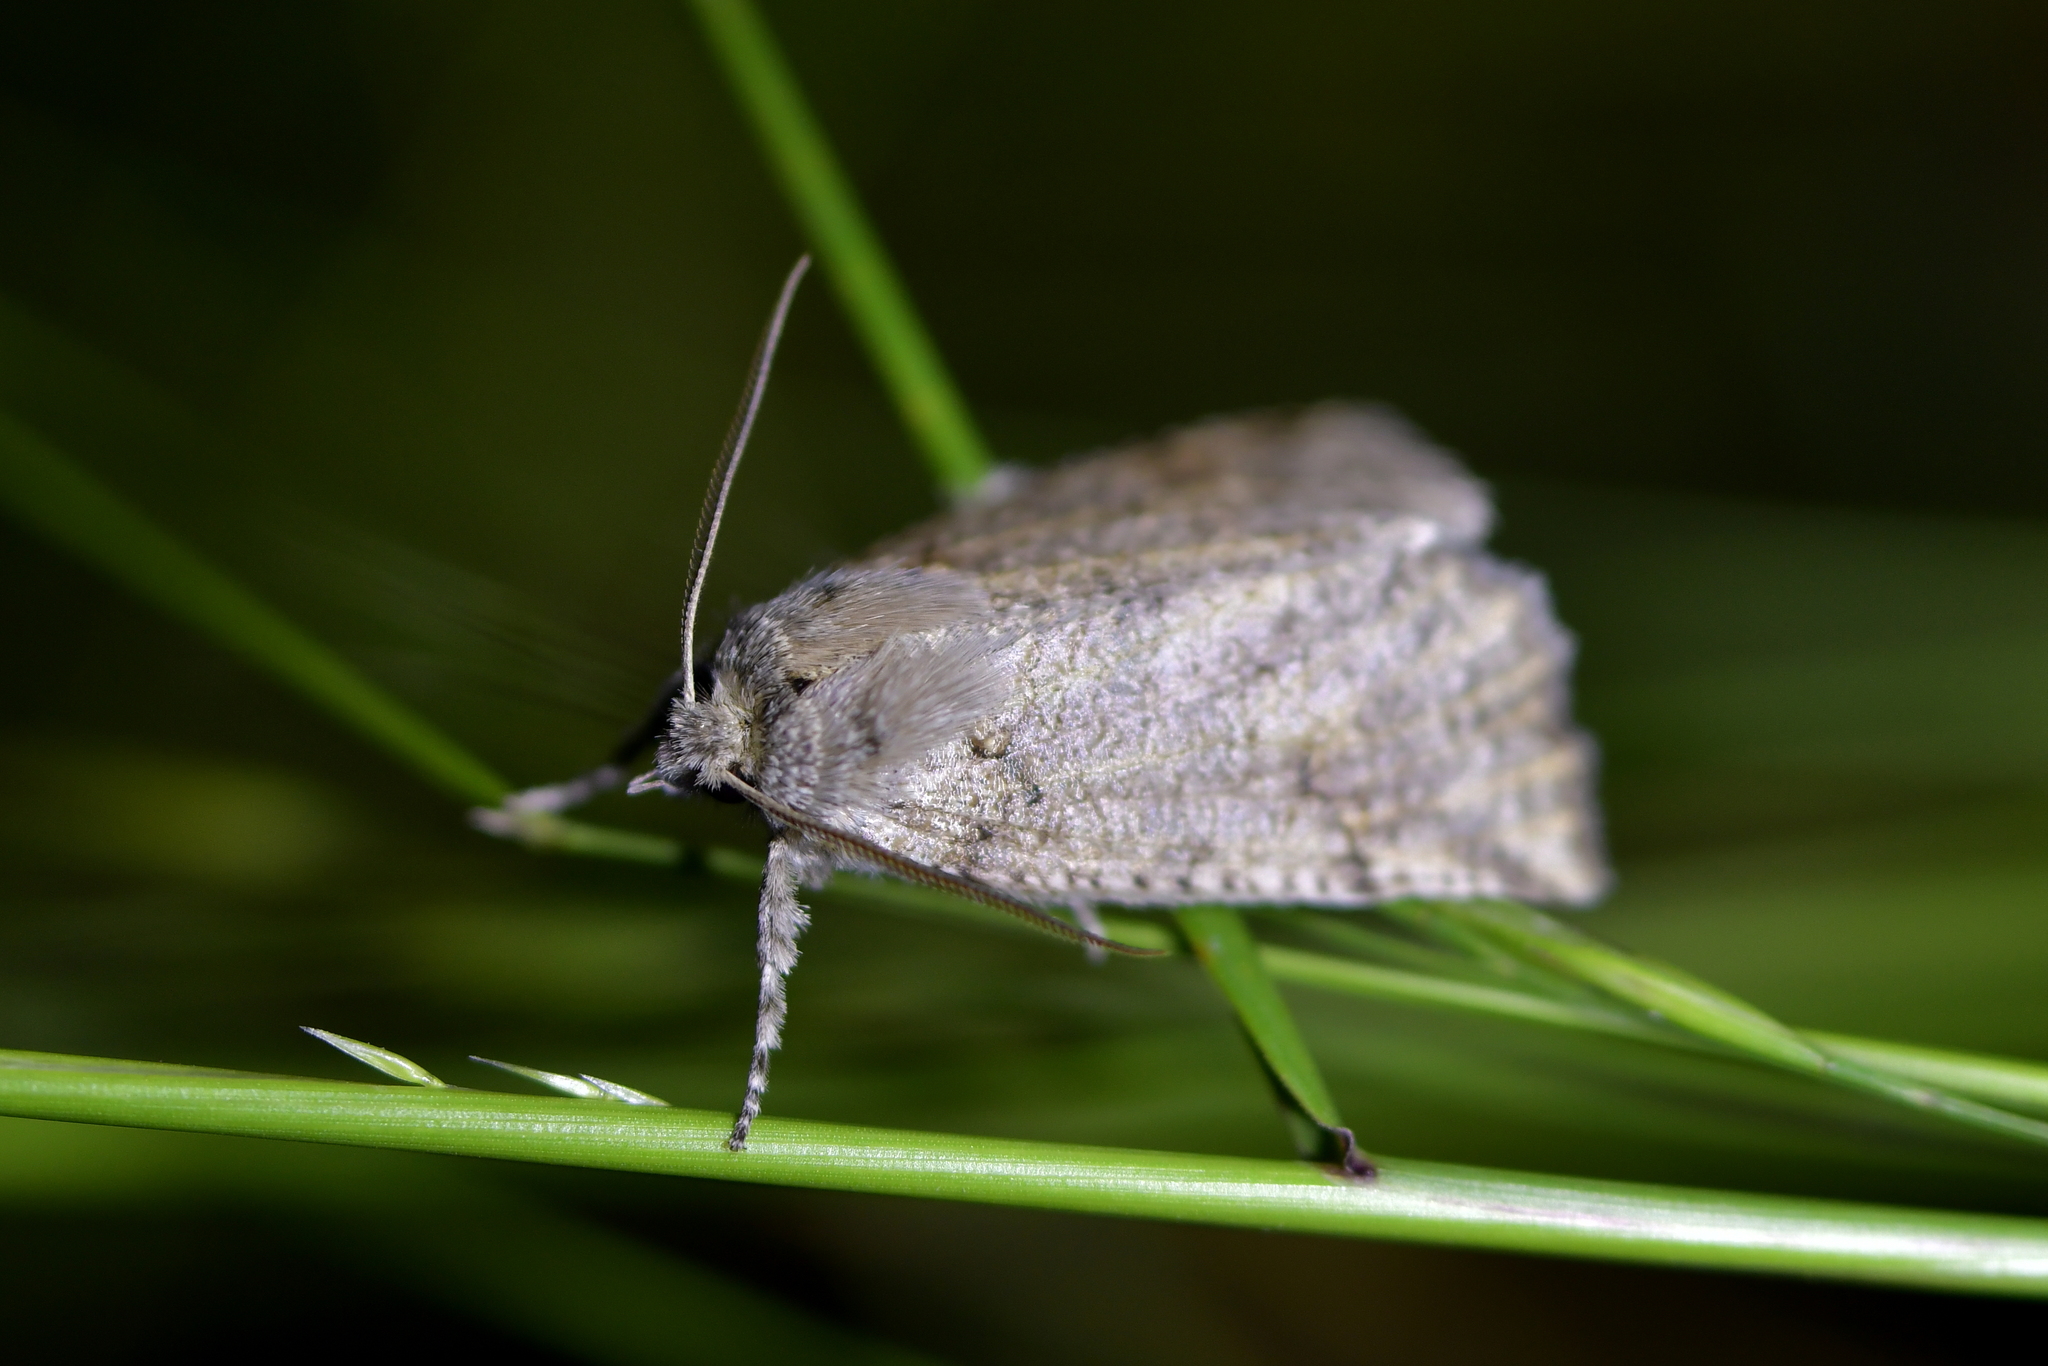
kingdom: Animalia
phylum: Arthropoda
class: Insecta
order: Lepidoptera
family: Geometridae
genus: Declana
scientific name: Declana floccosa
